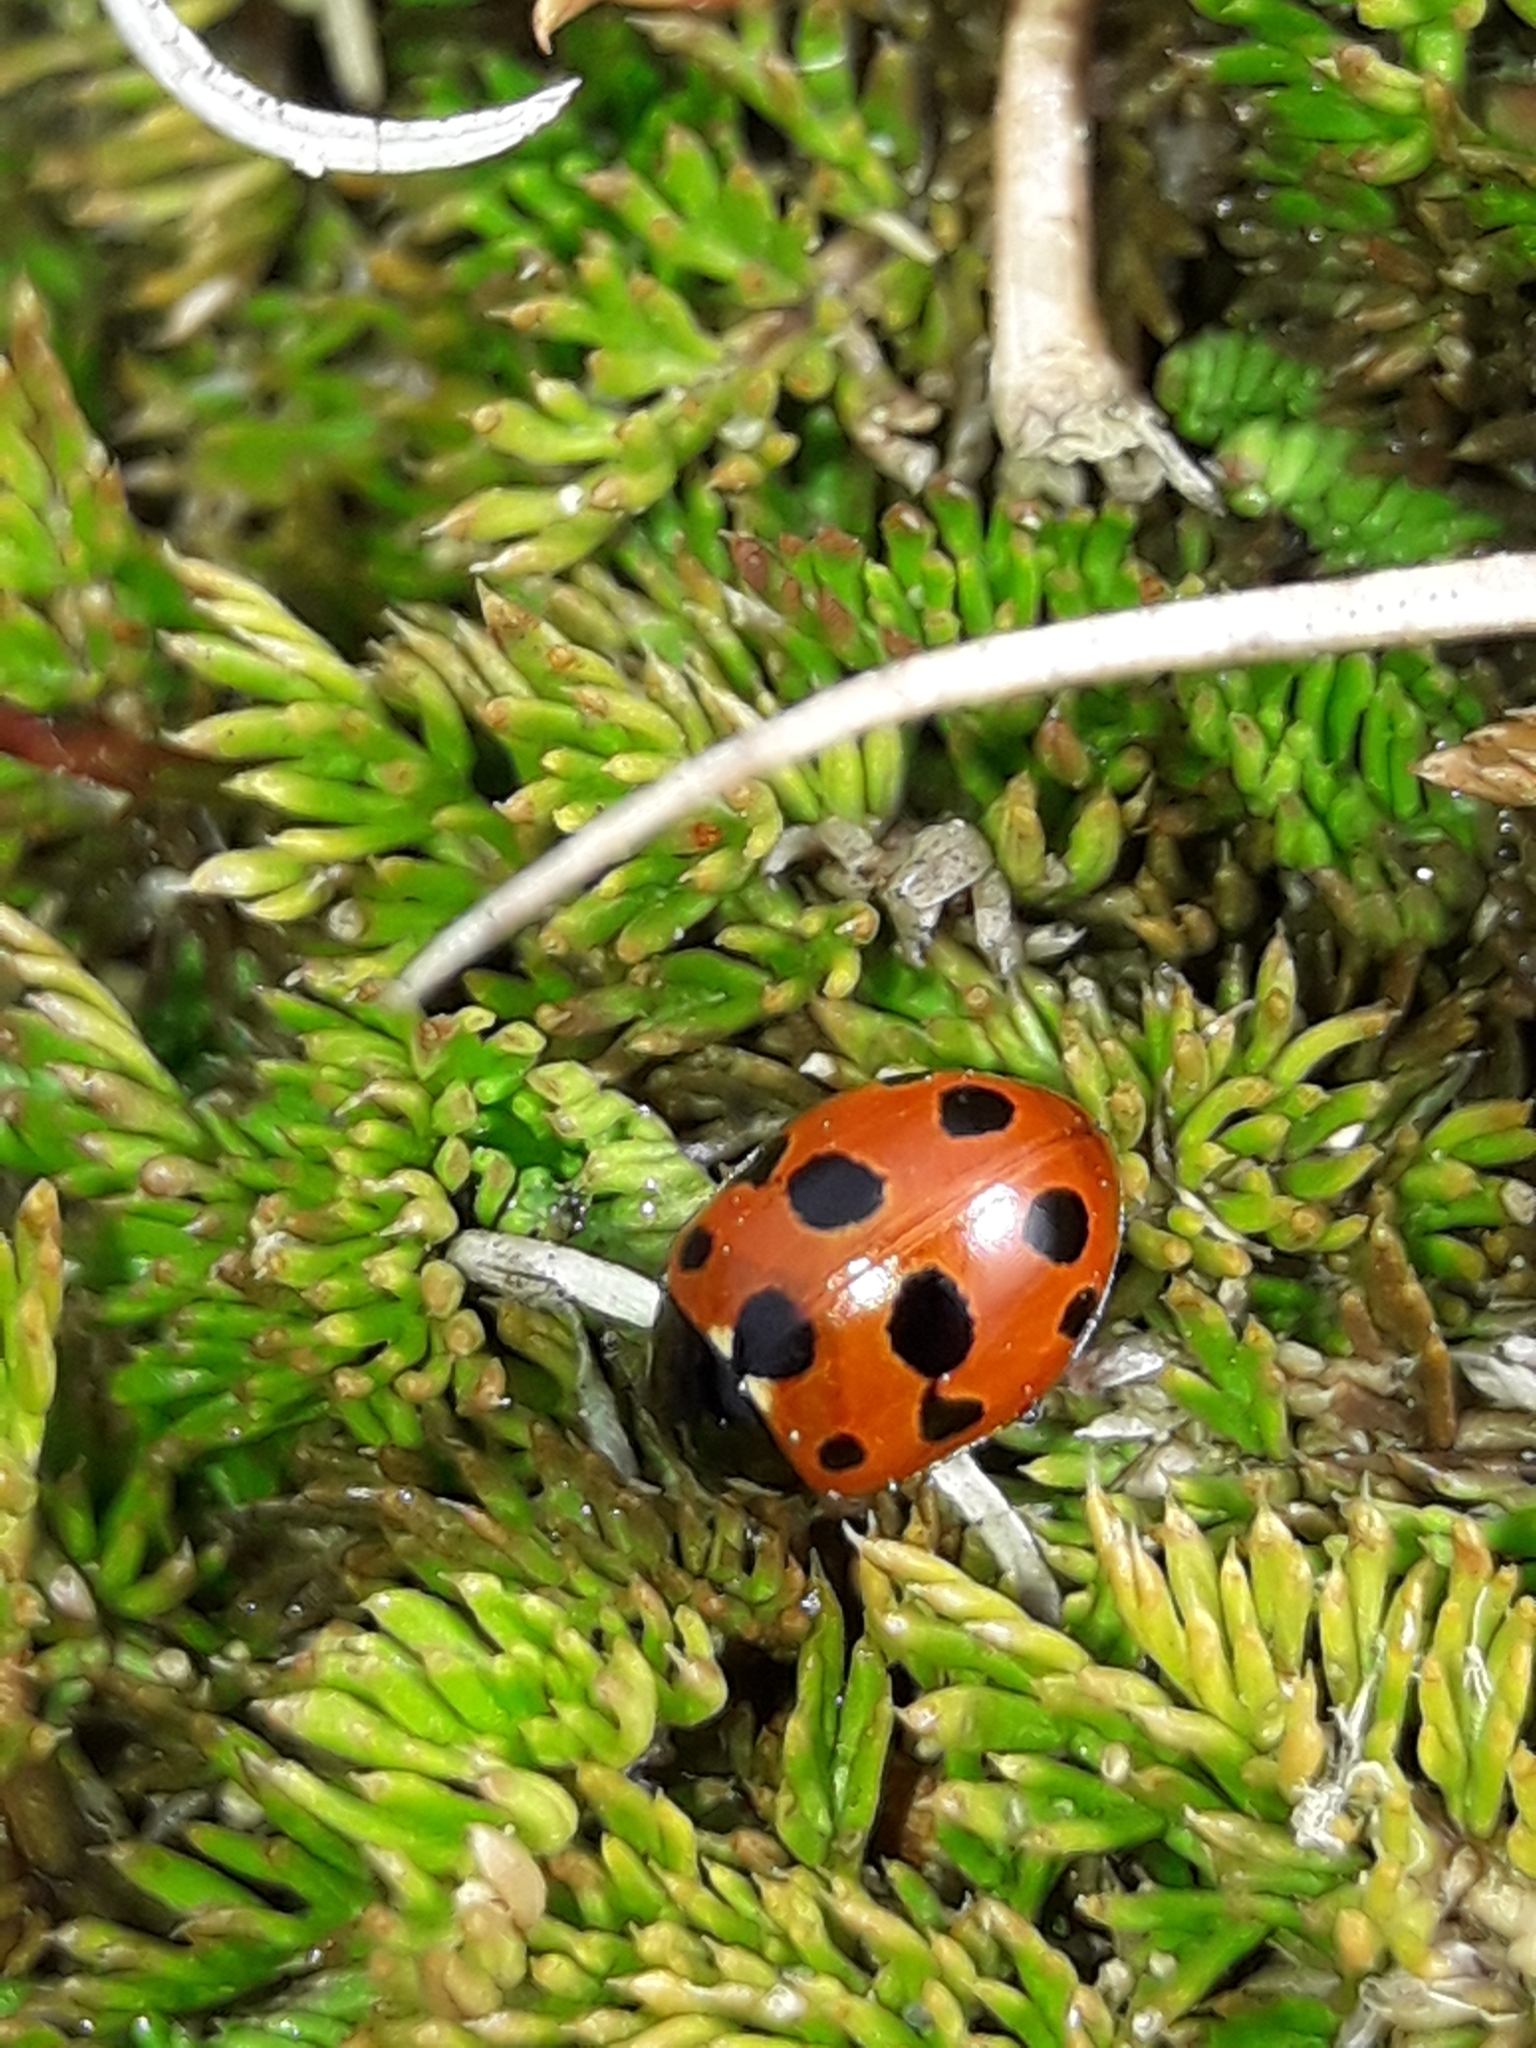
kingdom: Animalia
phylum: Arthropoda
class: Insecta
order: Coleoptera
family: Coccinellidae
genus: Coccinella
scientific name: Coccinella undecimpunctata
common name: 11-spot ladybird
